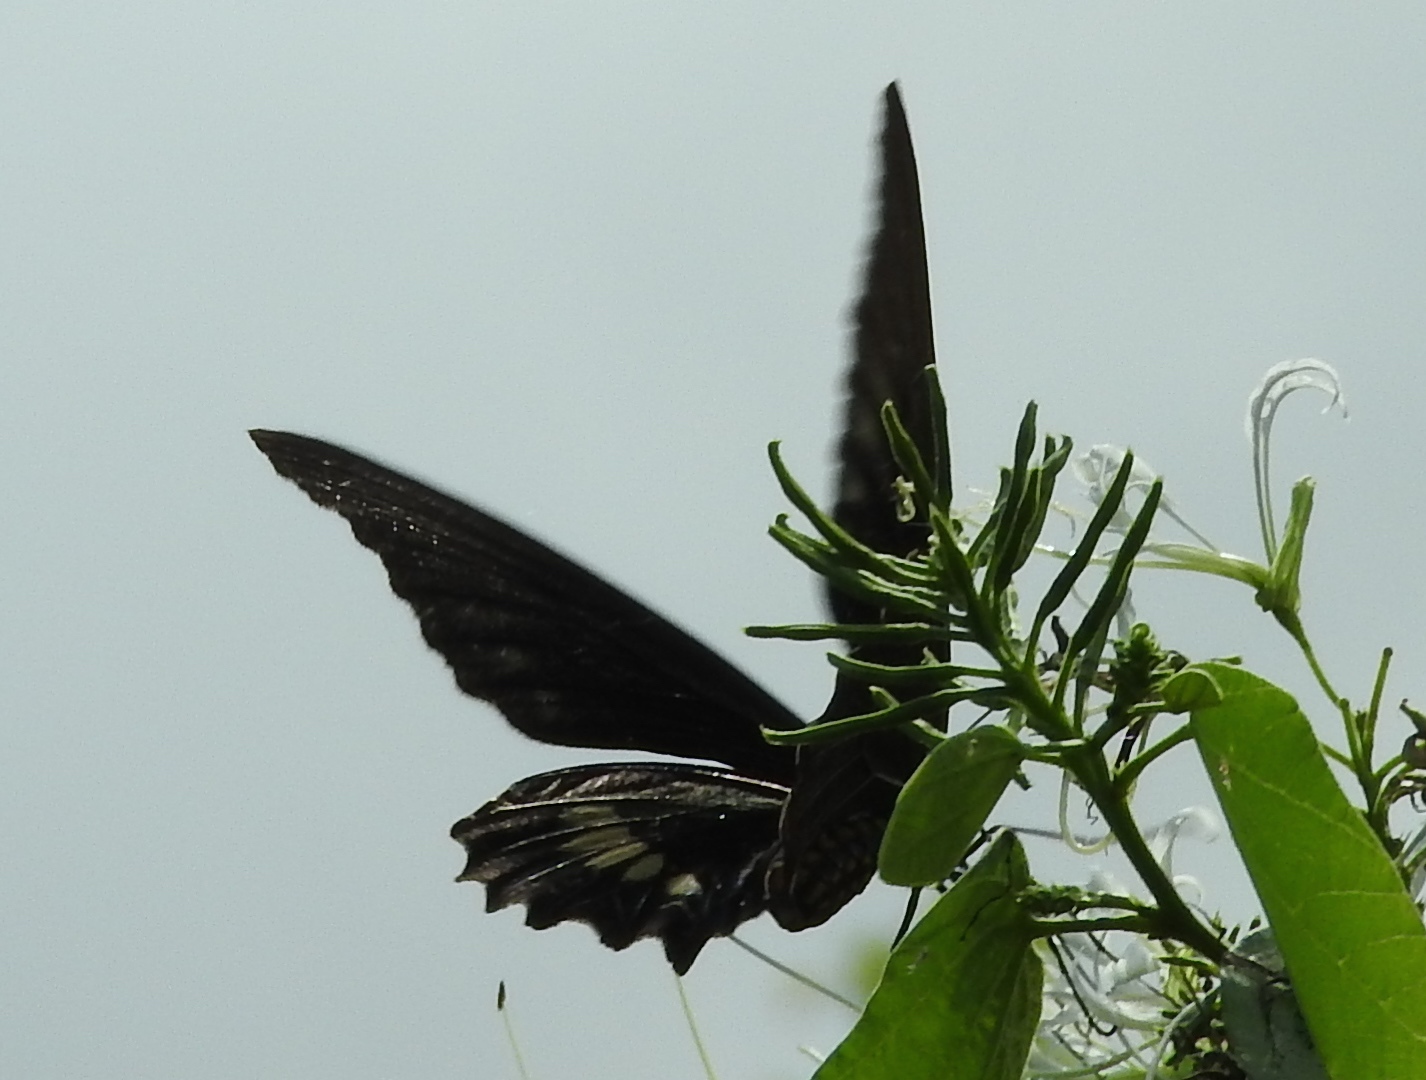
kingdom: Animalia
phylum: Arthropoda
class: Insecta
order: Lepidoptera
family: Papilionidae
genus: Battus
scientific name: Battus laodamas
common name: Green-patch swallowtail
